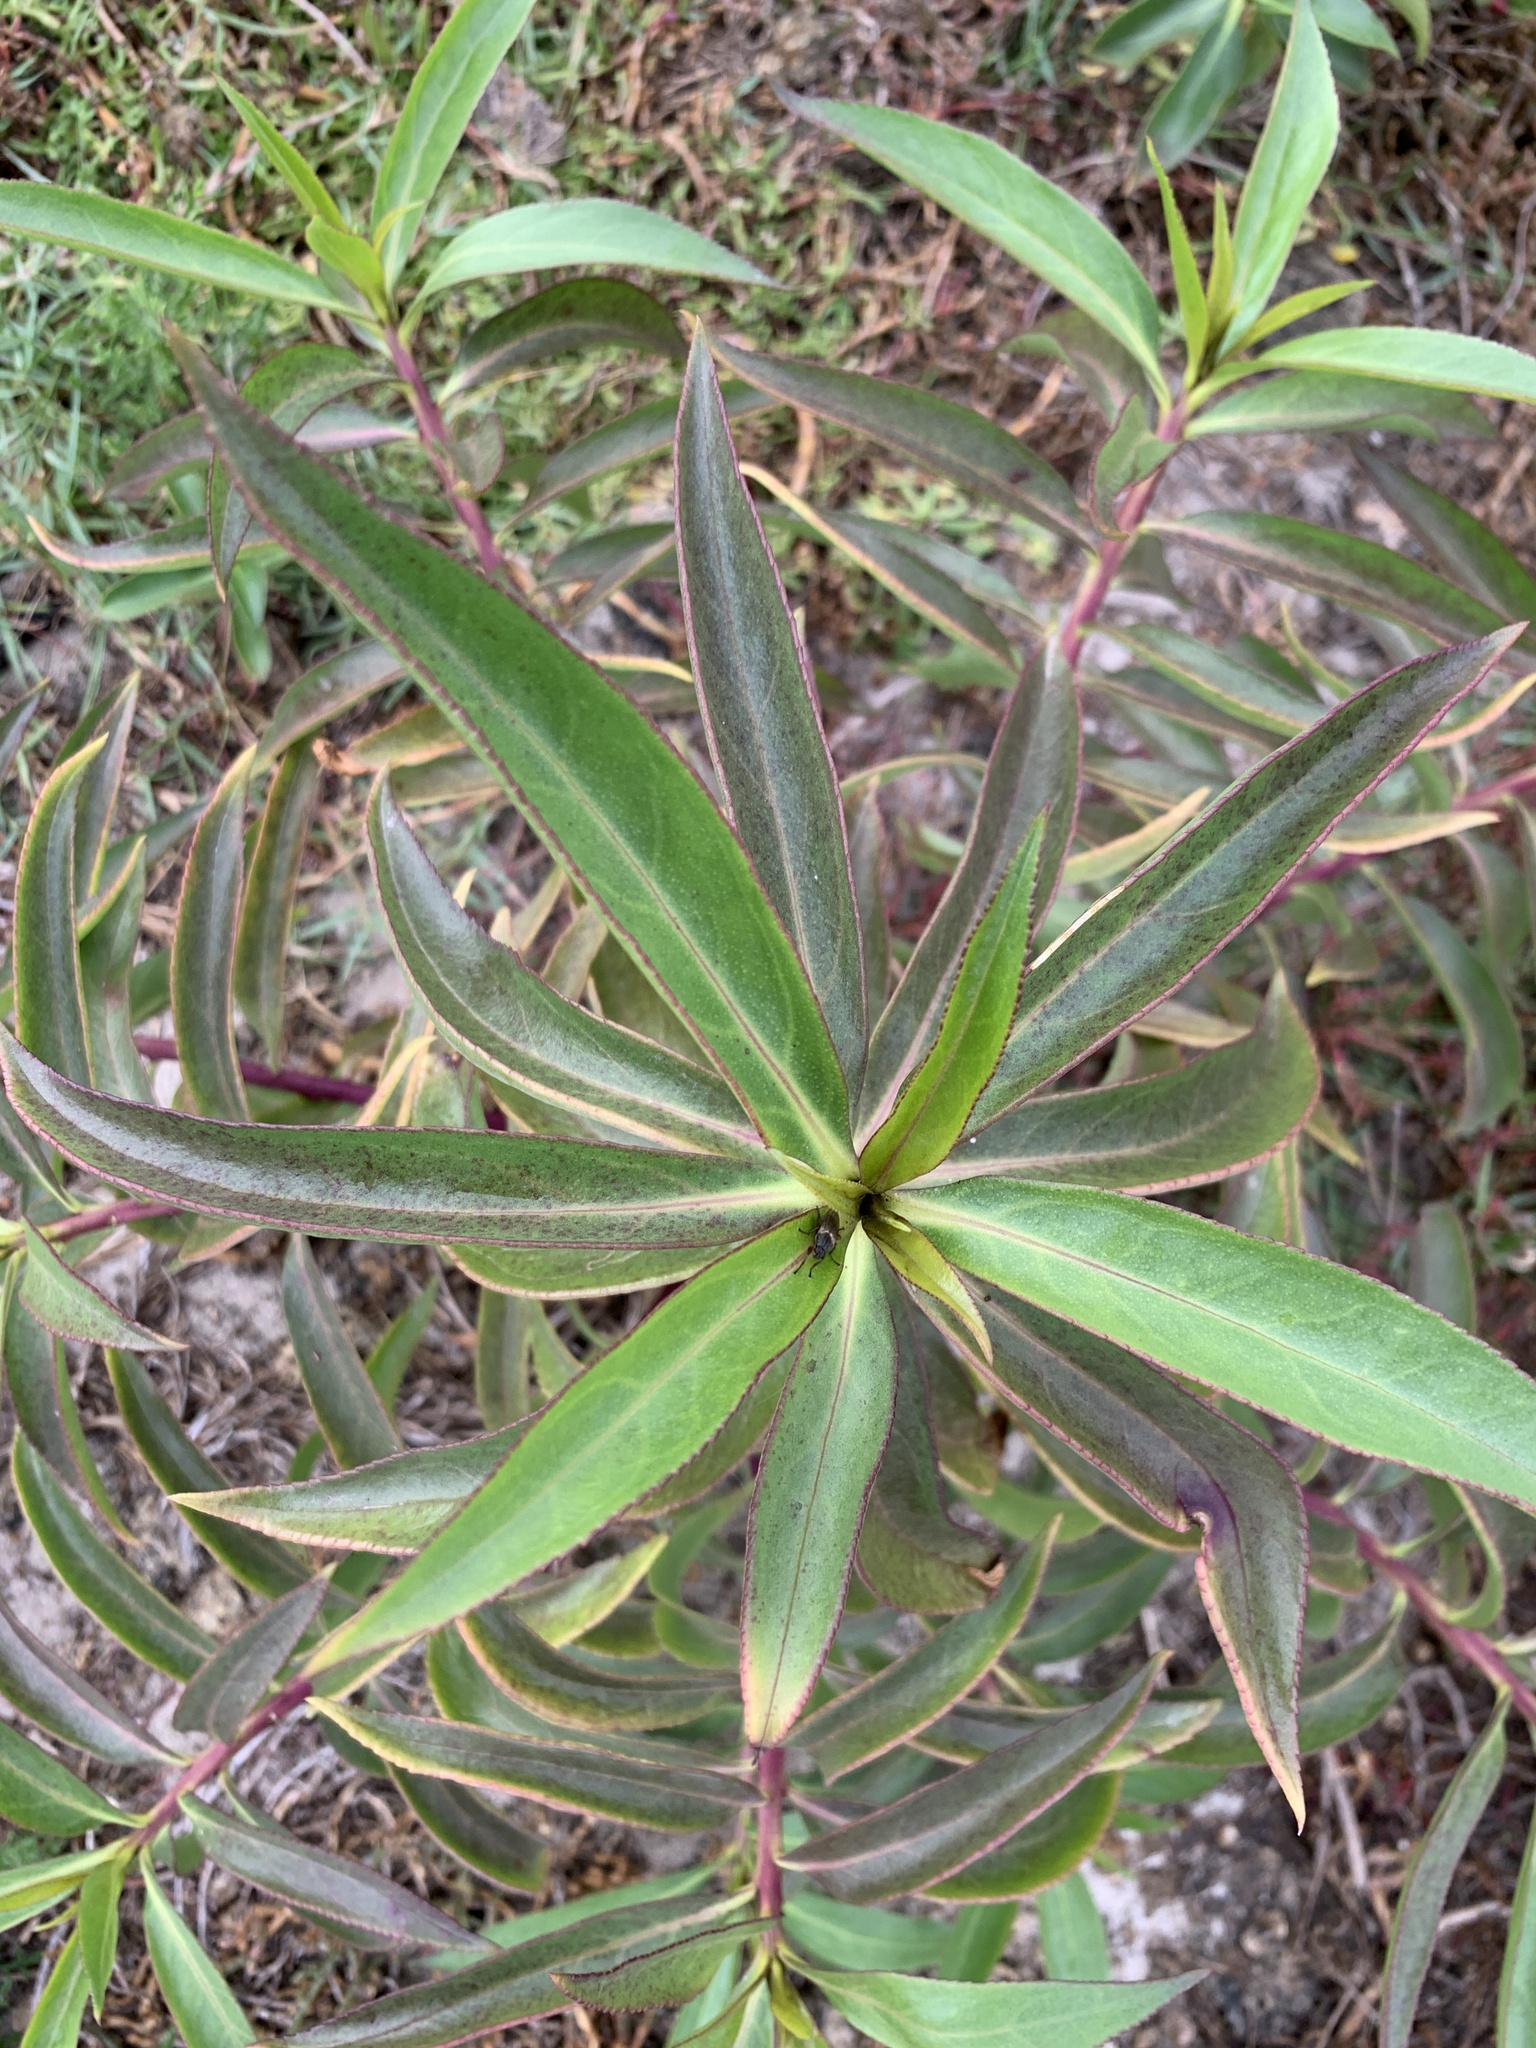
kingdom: Plantae
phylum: Tracheophyta
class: Magnoliopsida
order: Lamiales
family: Scrophulariaceae
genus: Myoporum
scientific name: Myoporum insulare
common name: Common boobialla
